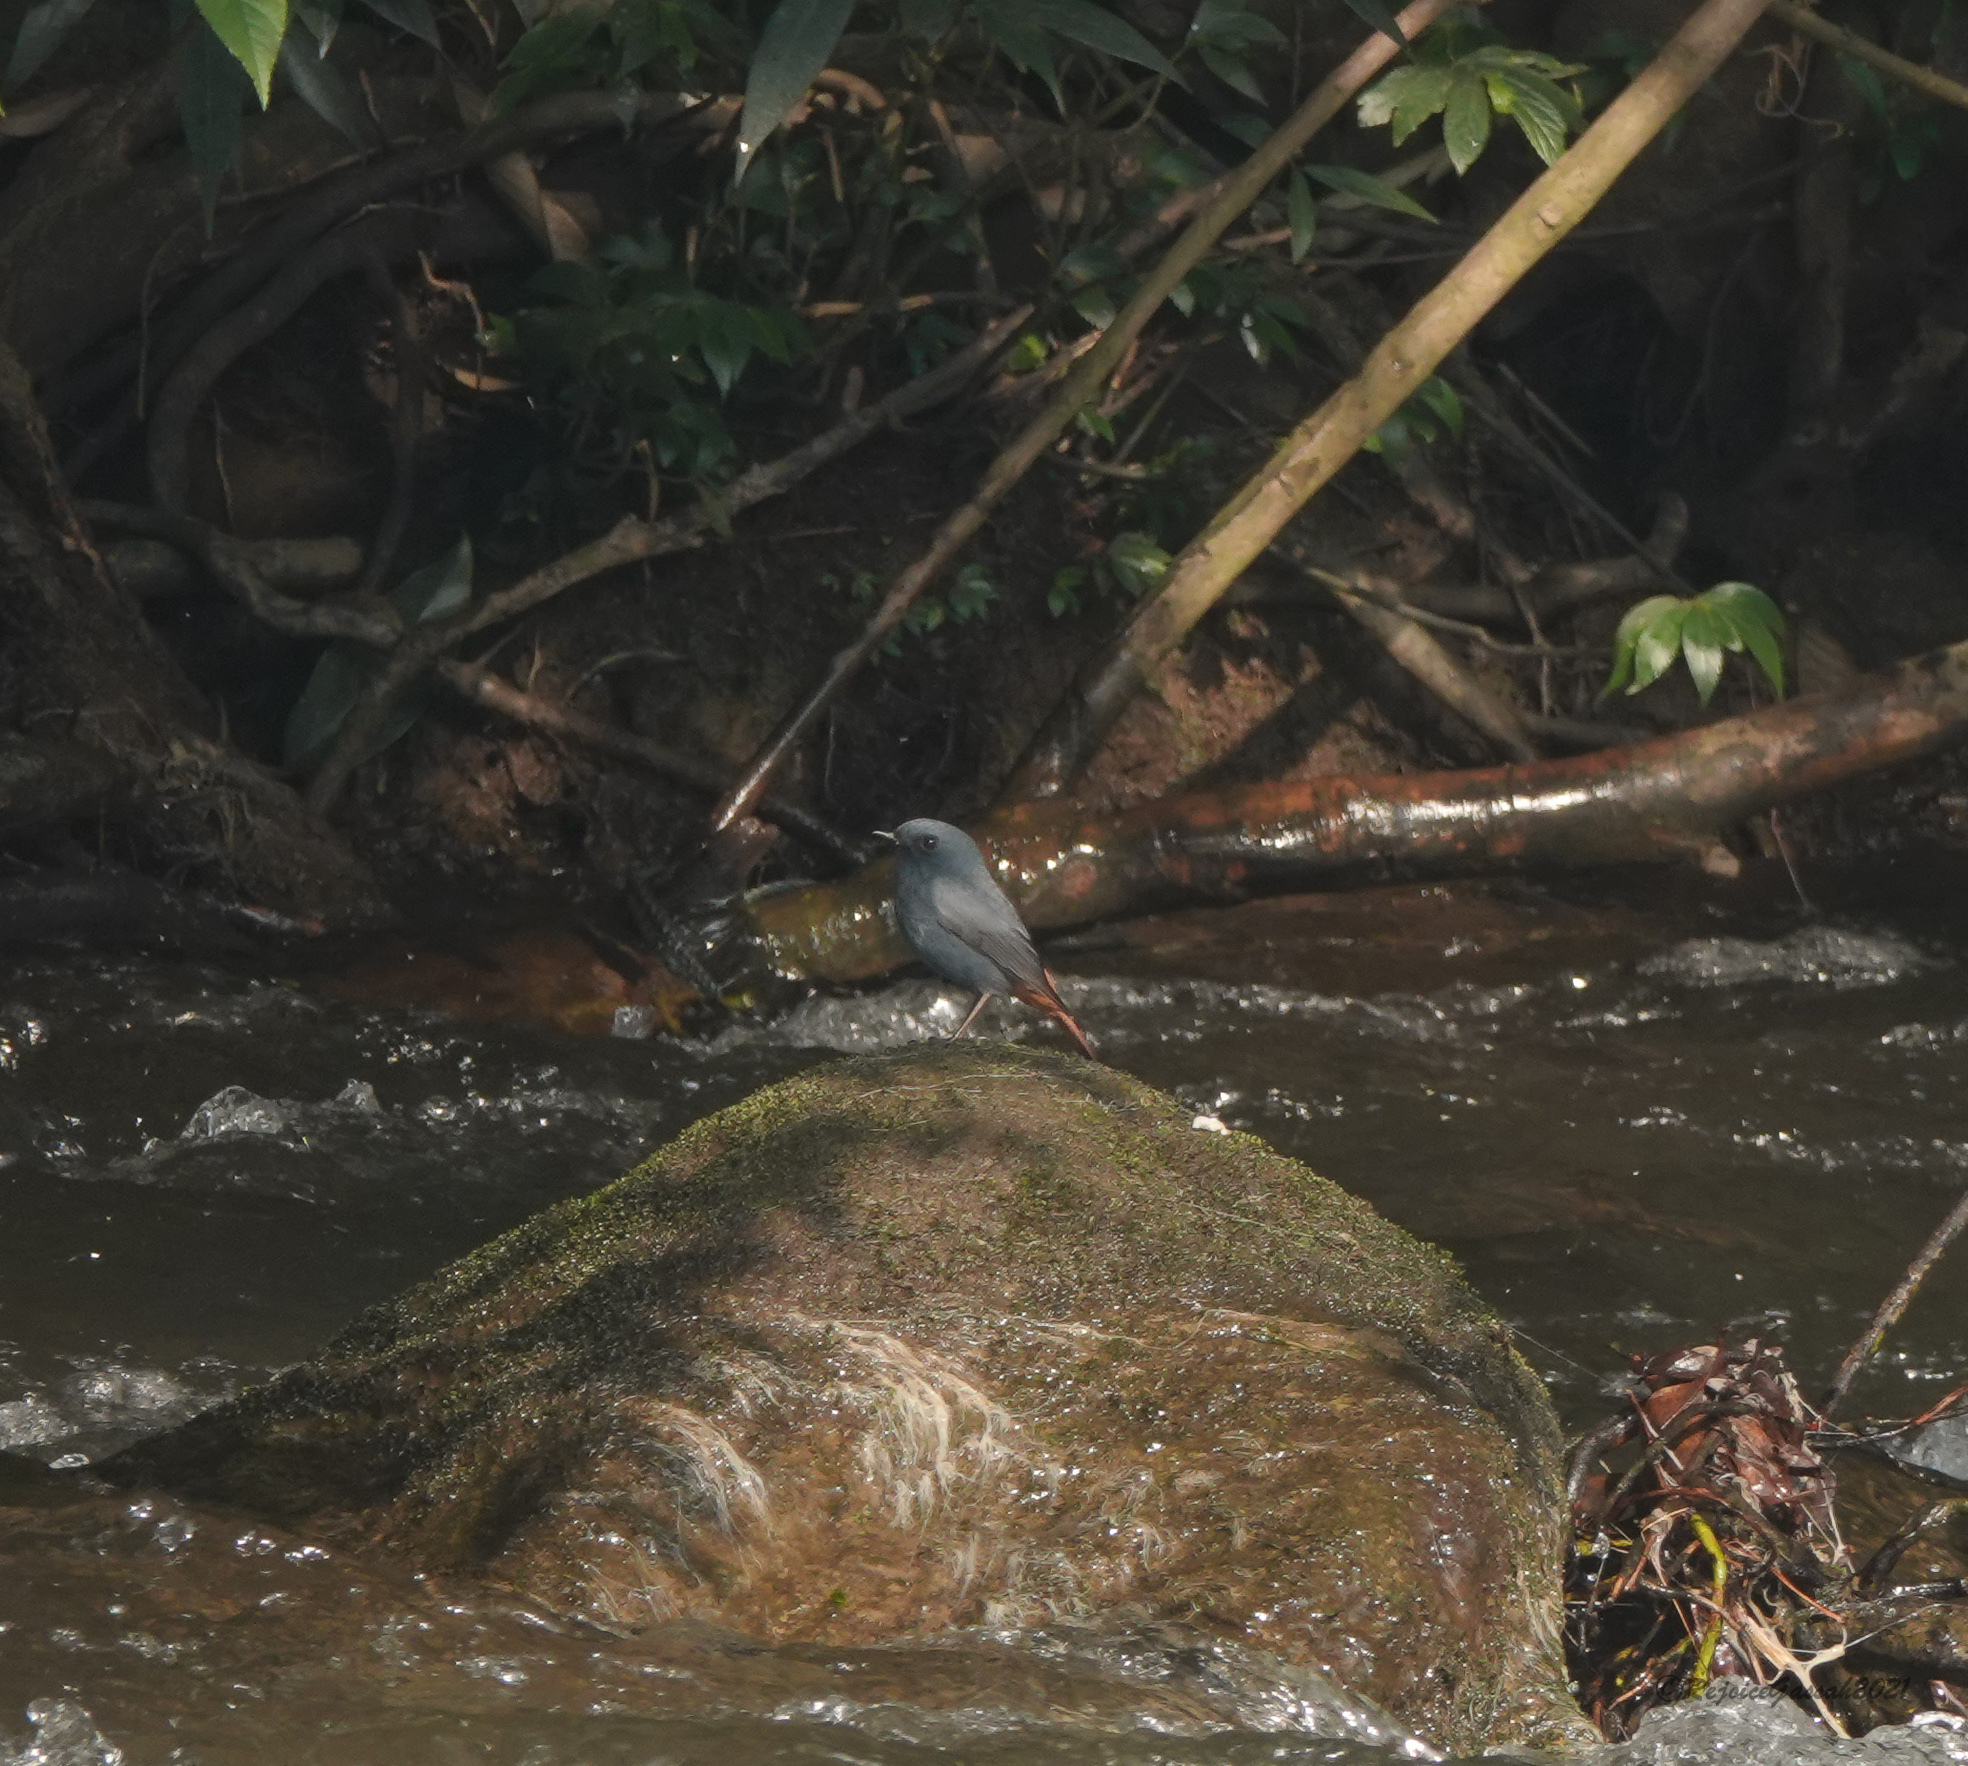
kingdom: Animalia
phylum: Chordata
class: Aves
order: Passeriformes
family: Muscicapidae
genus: Phoenicurus
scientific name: Phoenicurus fuliginosus
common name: Plumbeous water redstart
